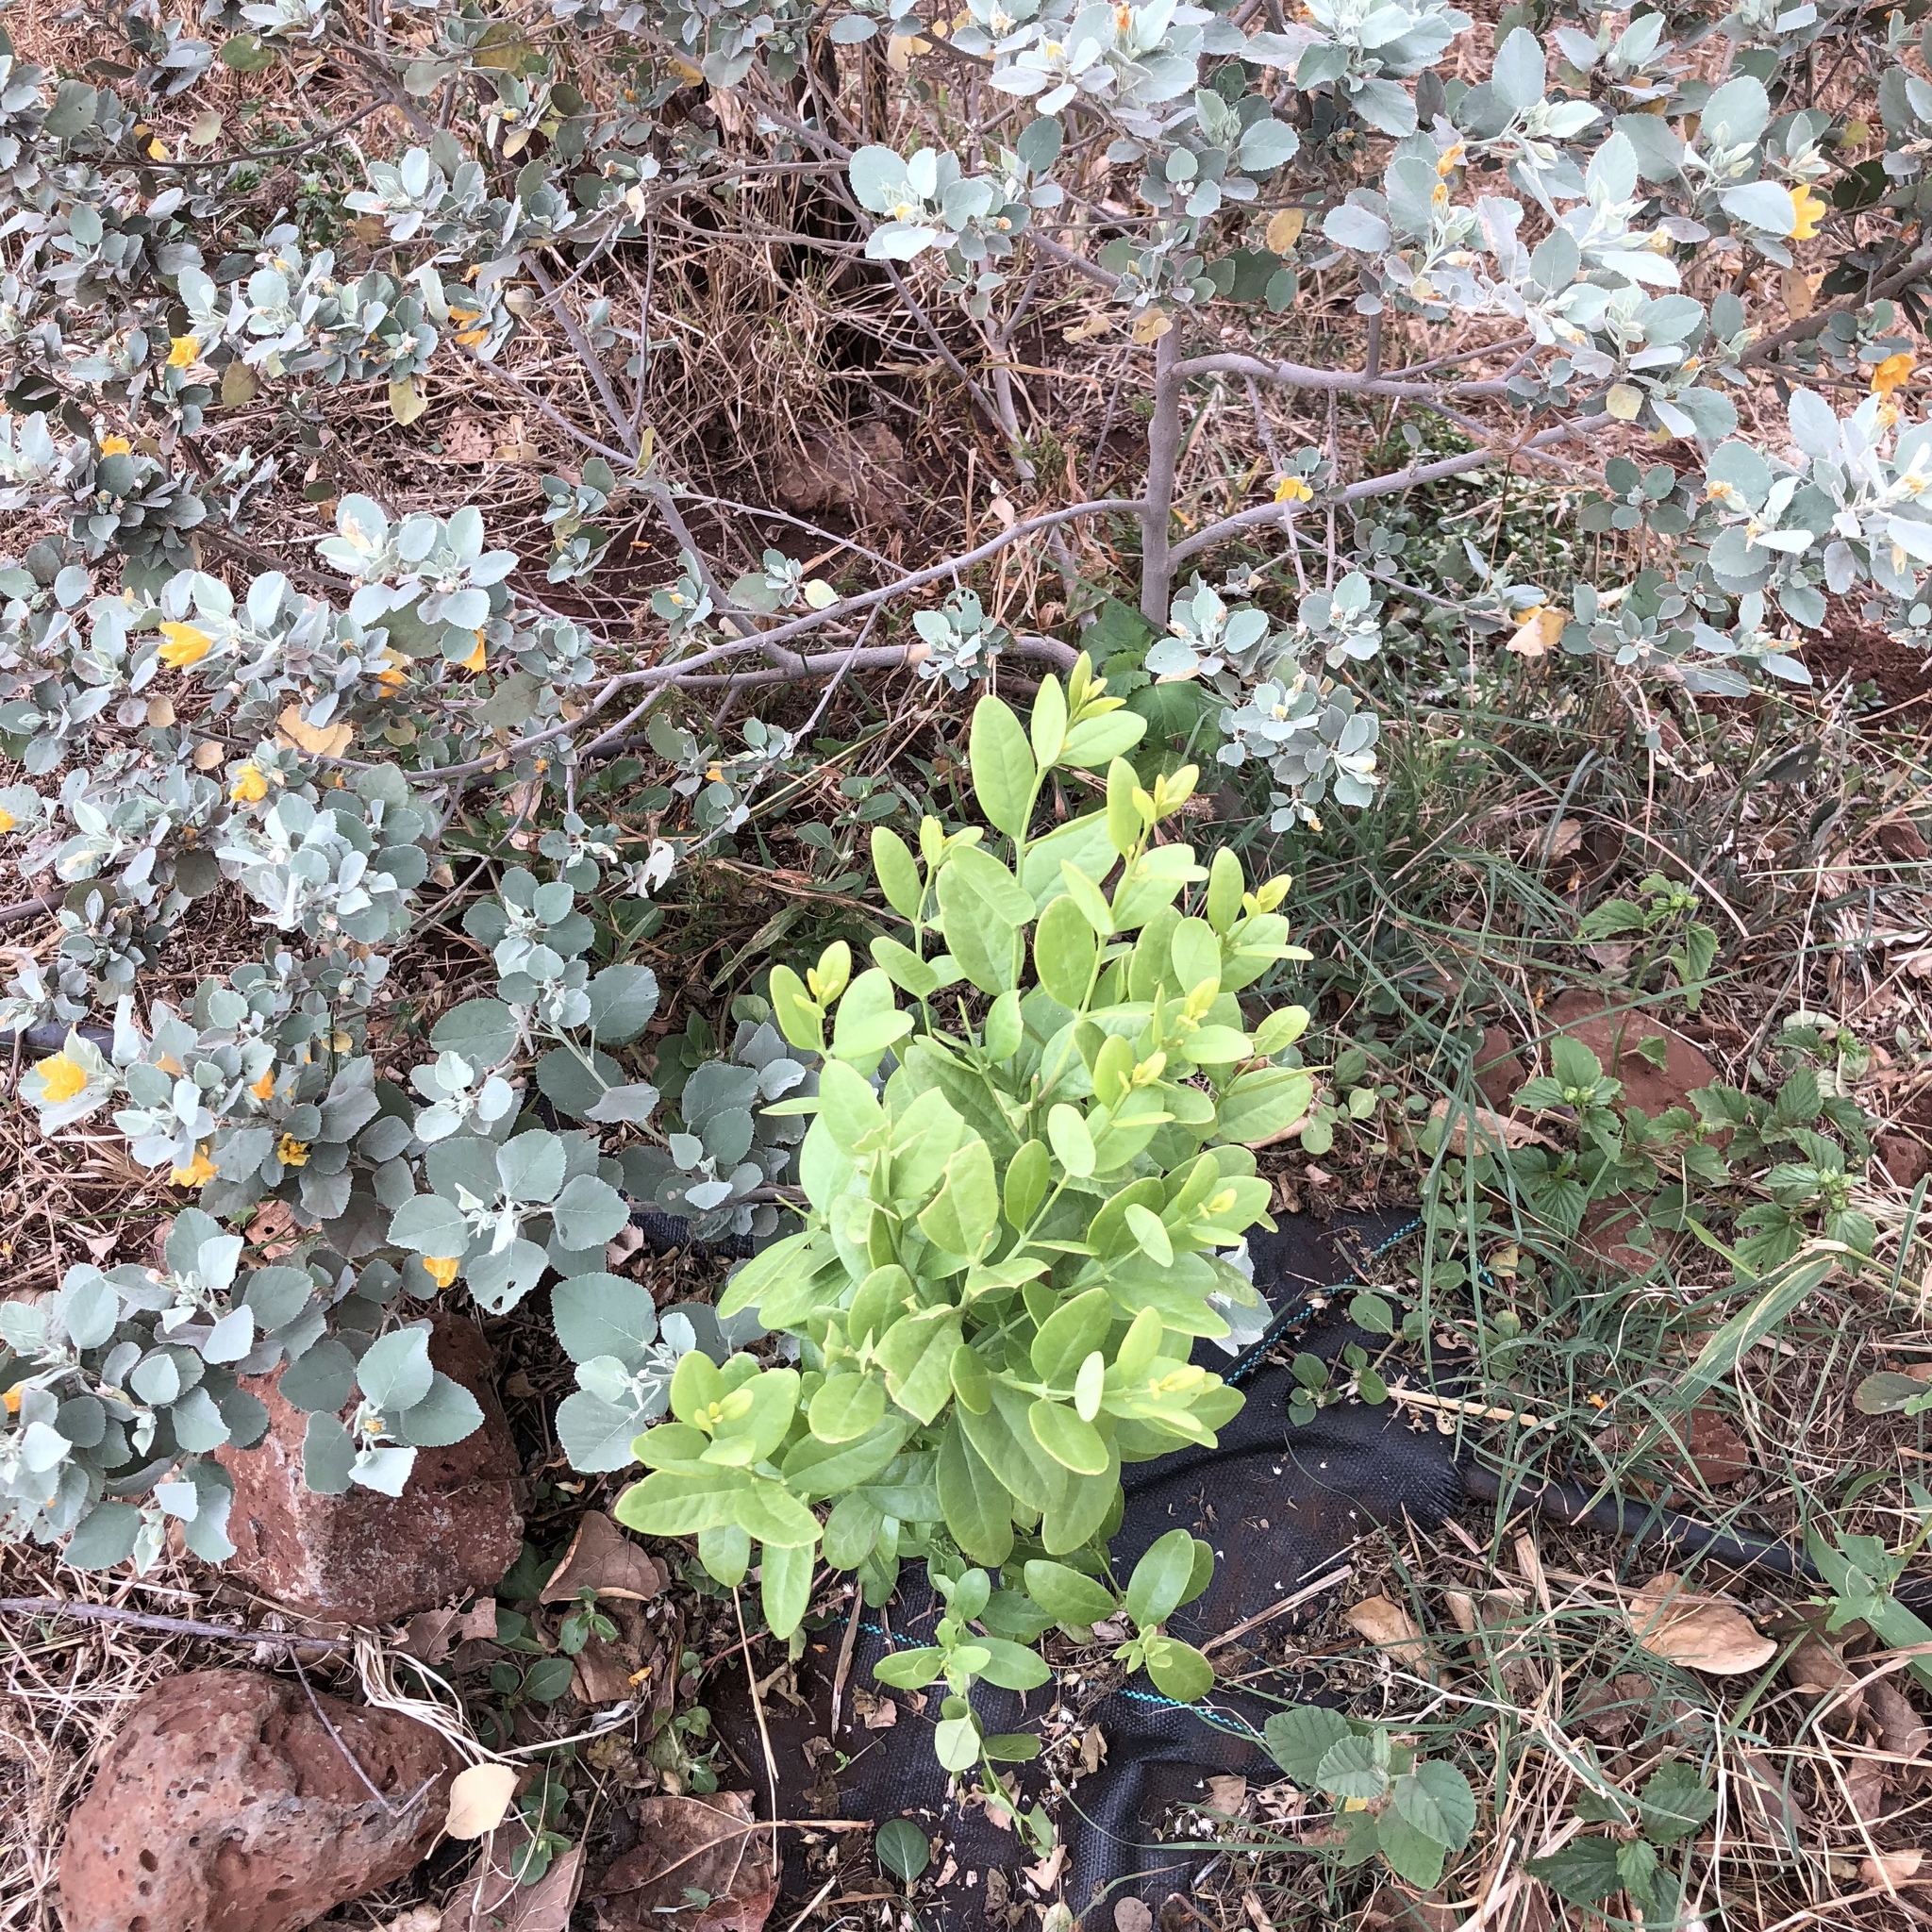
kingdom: Plantae
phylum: Tracheophyta
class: Magnoliopsida
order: Santalales
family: Santalaceae
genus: Santalum
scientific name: Santalum ellipticum
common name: Coast sandalwood
